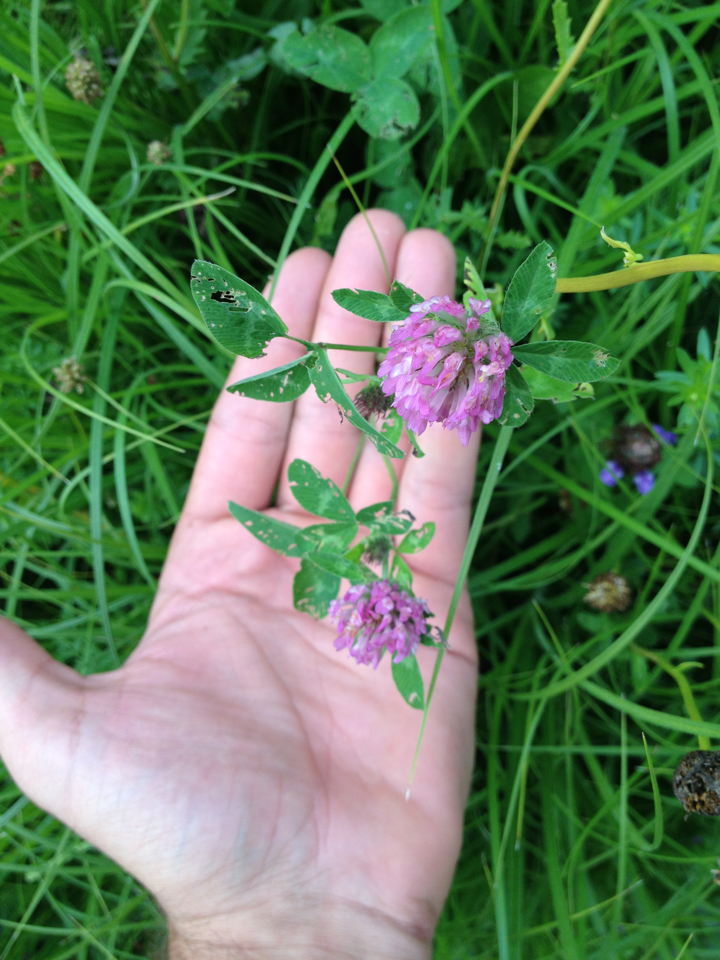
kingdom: Plantae
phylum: Tracheophyta
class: Magnoliopsida
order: Fabales
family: Fabaceae
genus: Trifolium
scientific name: Trifolium pratense
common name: Red clover
